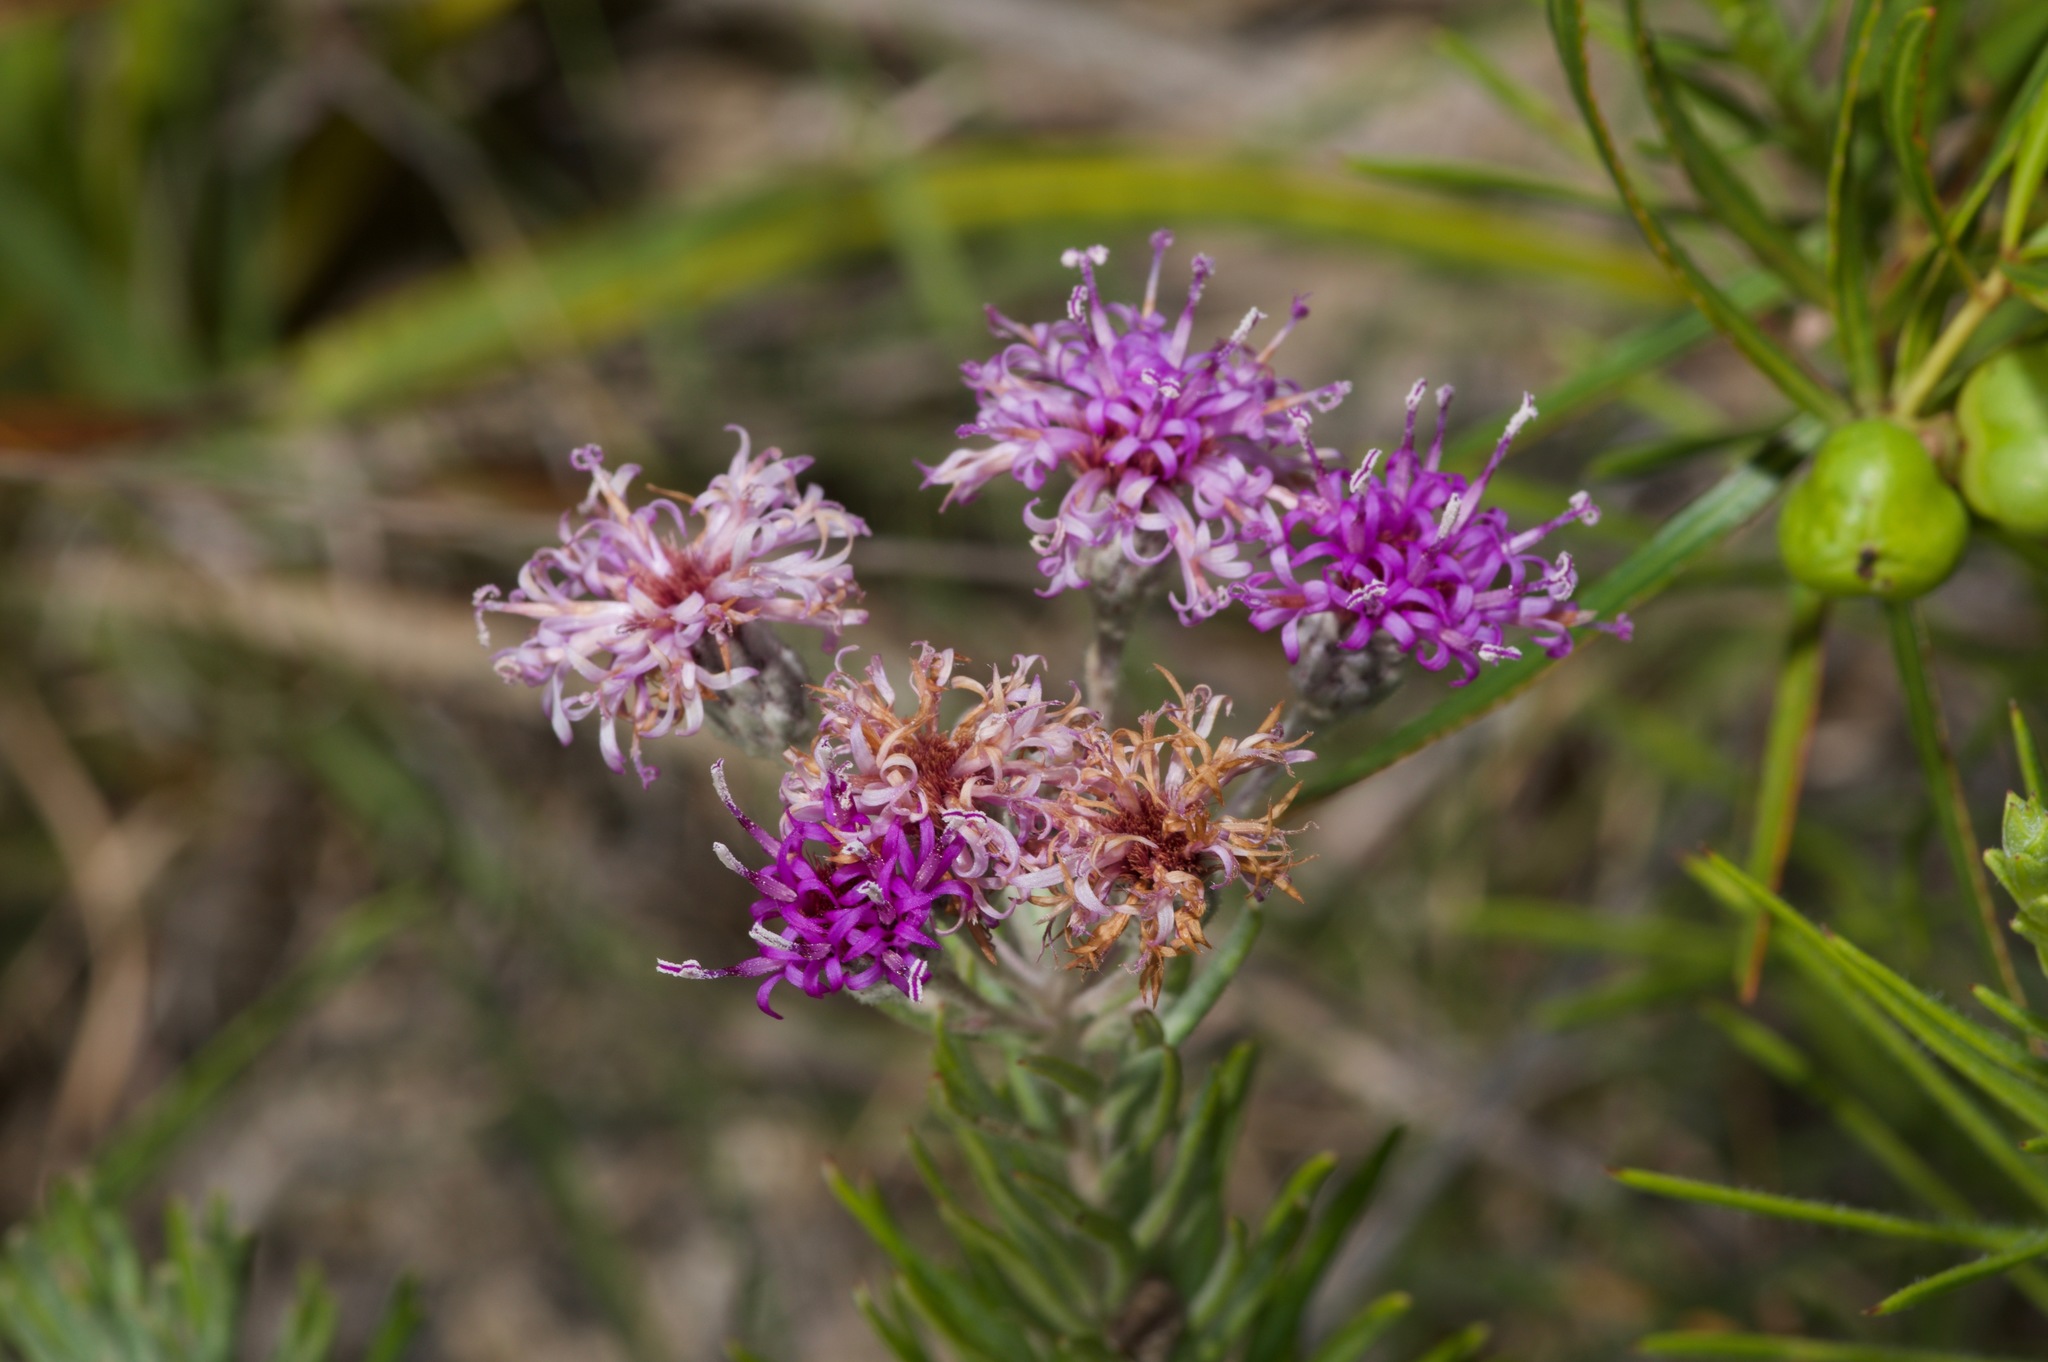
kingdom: Plantae
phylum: Tracheophyta
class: Magnoliopsida
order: Asterales
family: Asteraceae
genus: Vernonia
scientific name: Vernonia lindheimeri
